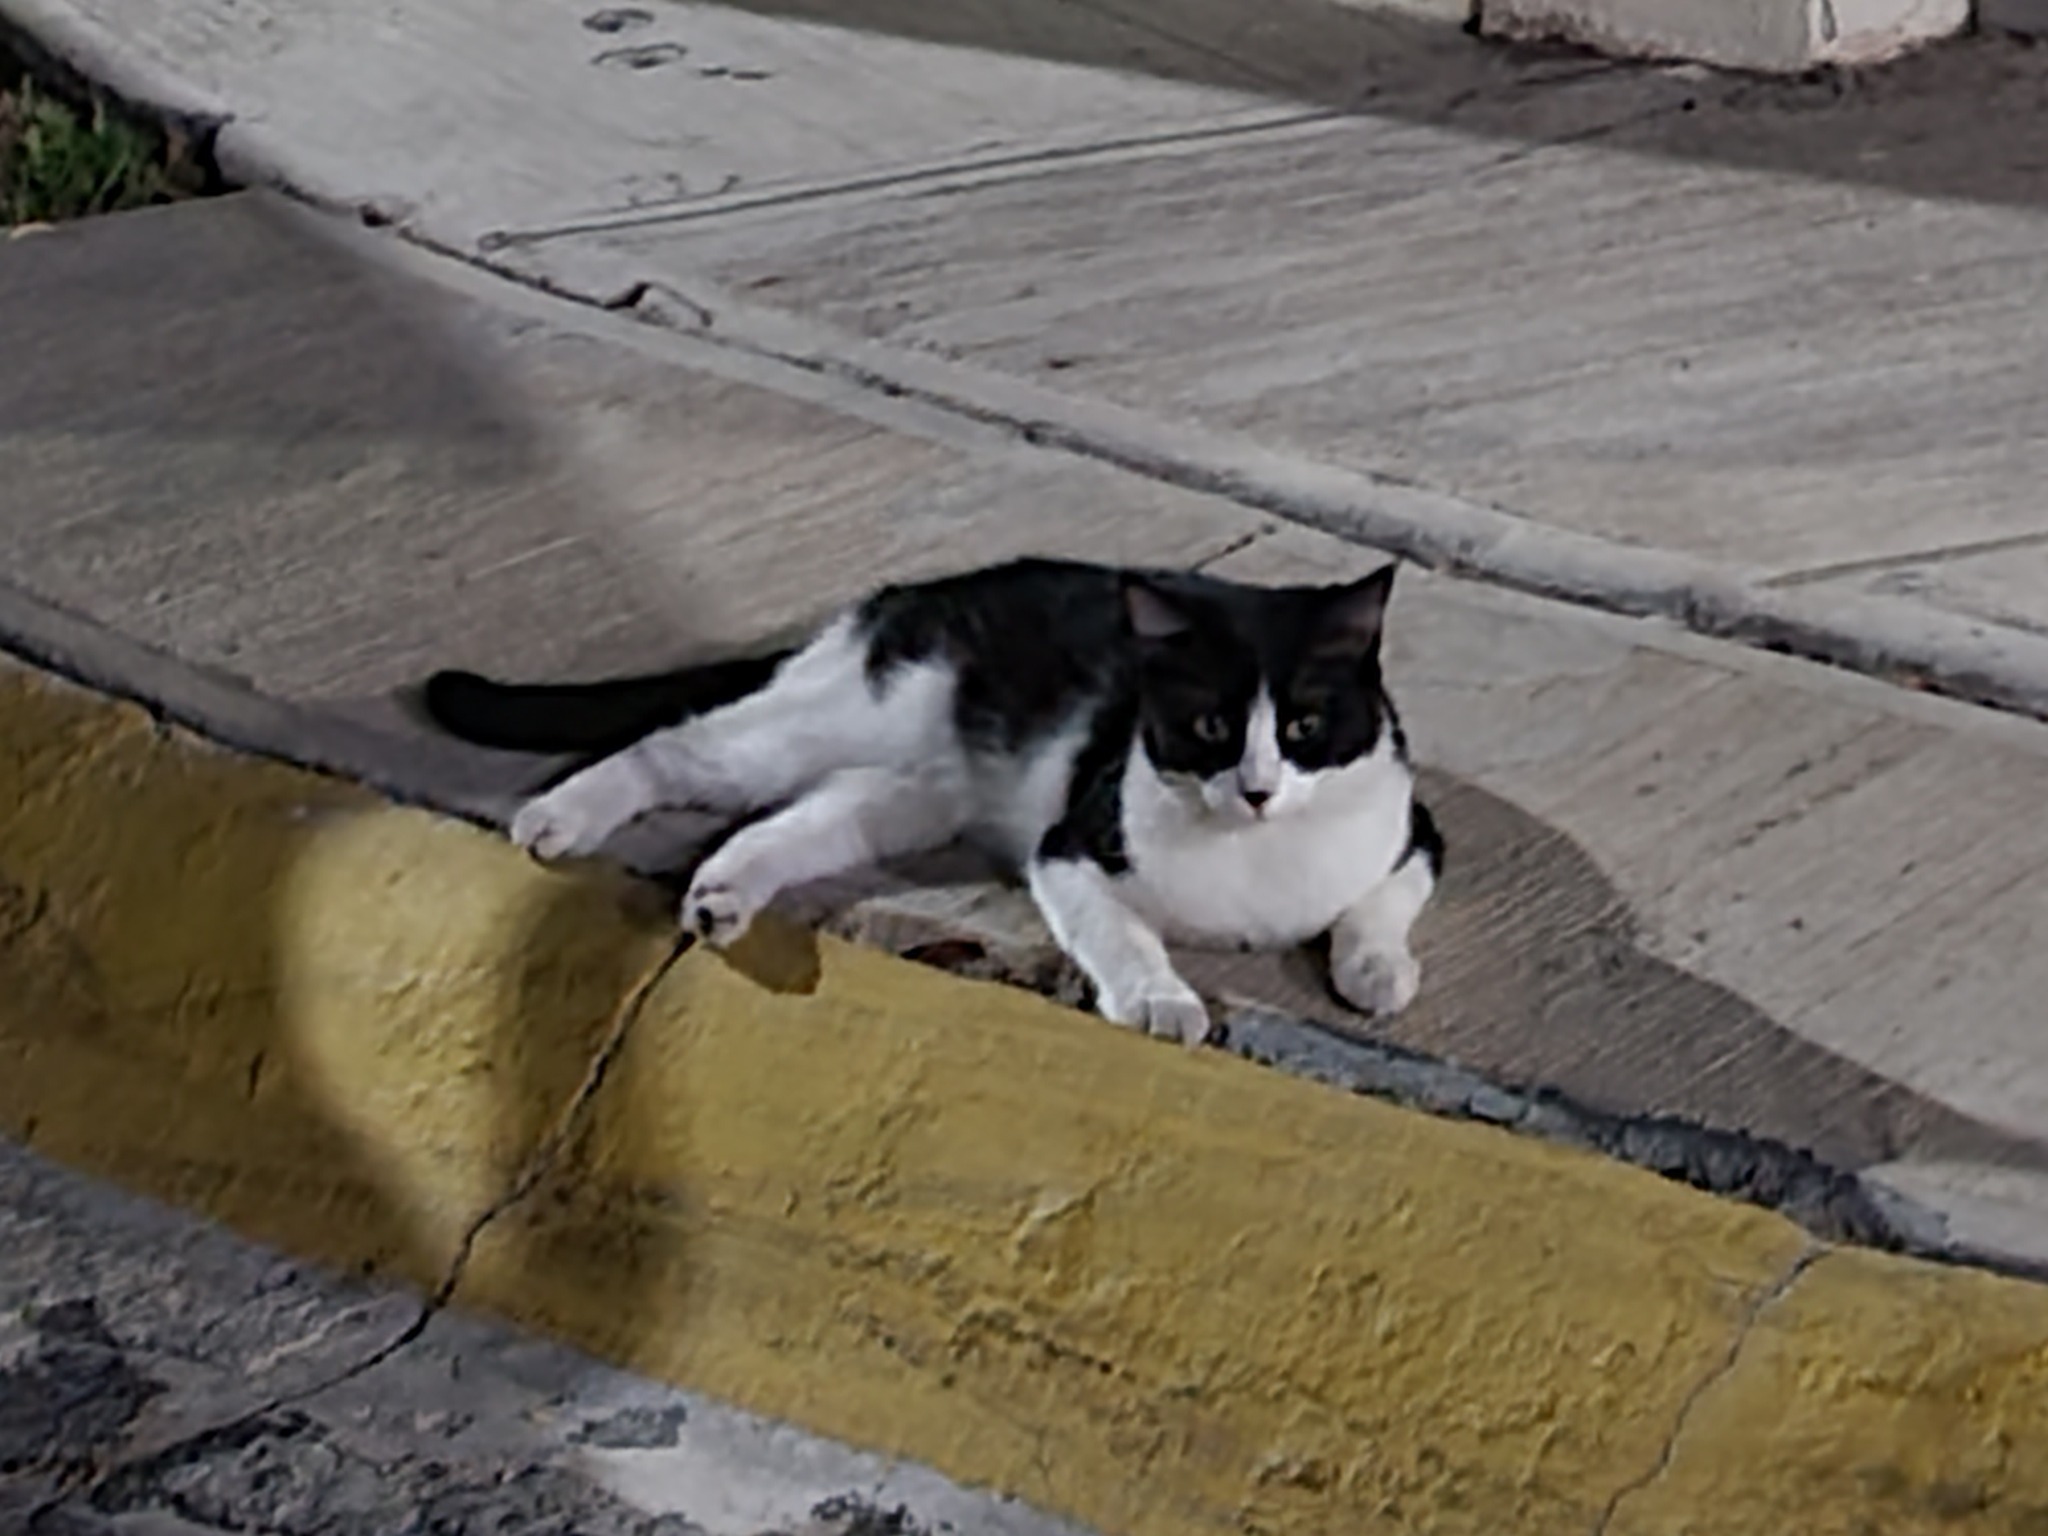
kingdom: Animalia
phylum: Chordata
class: Mammalia
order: Carnivora
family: Felidae
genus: Felis
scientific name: Felis catus
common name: Domestic cat
